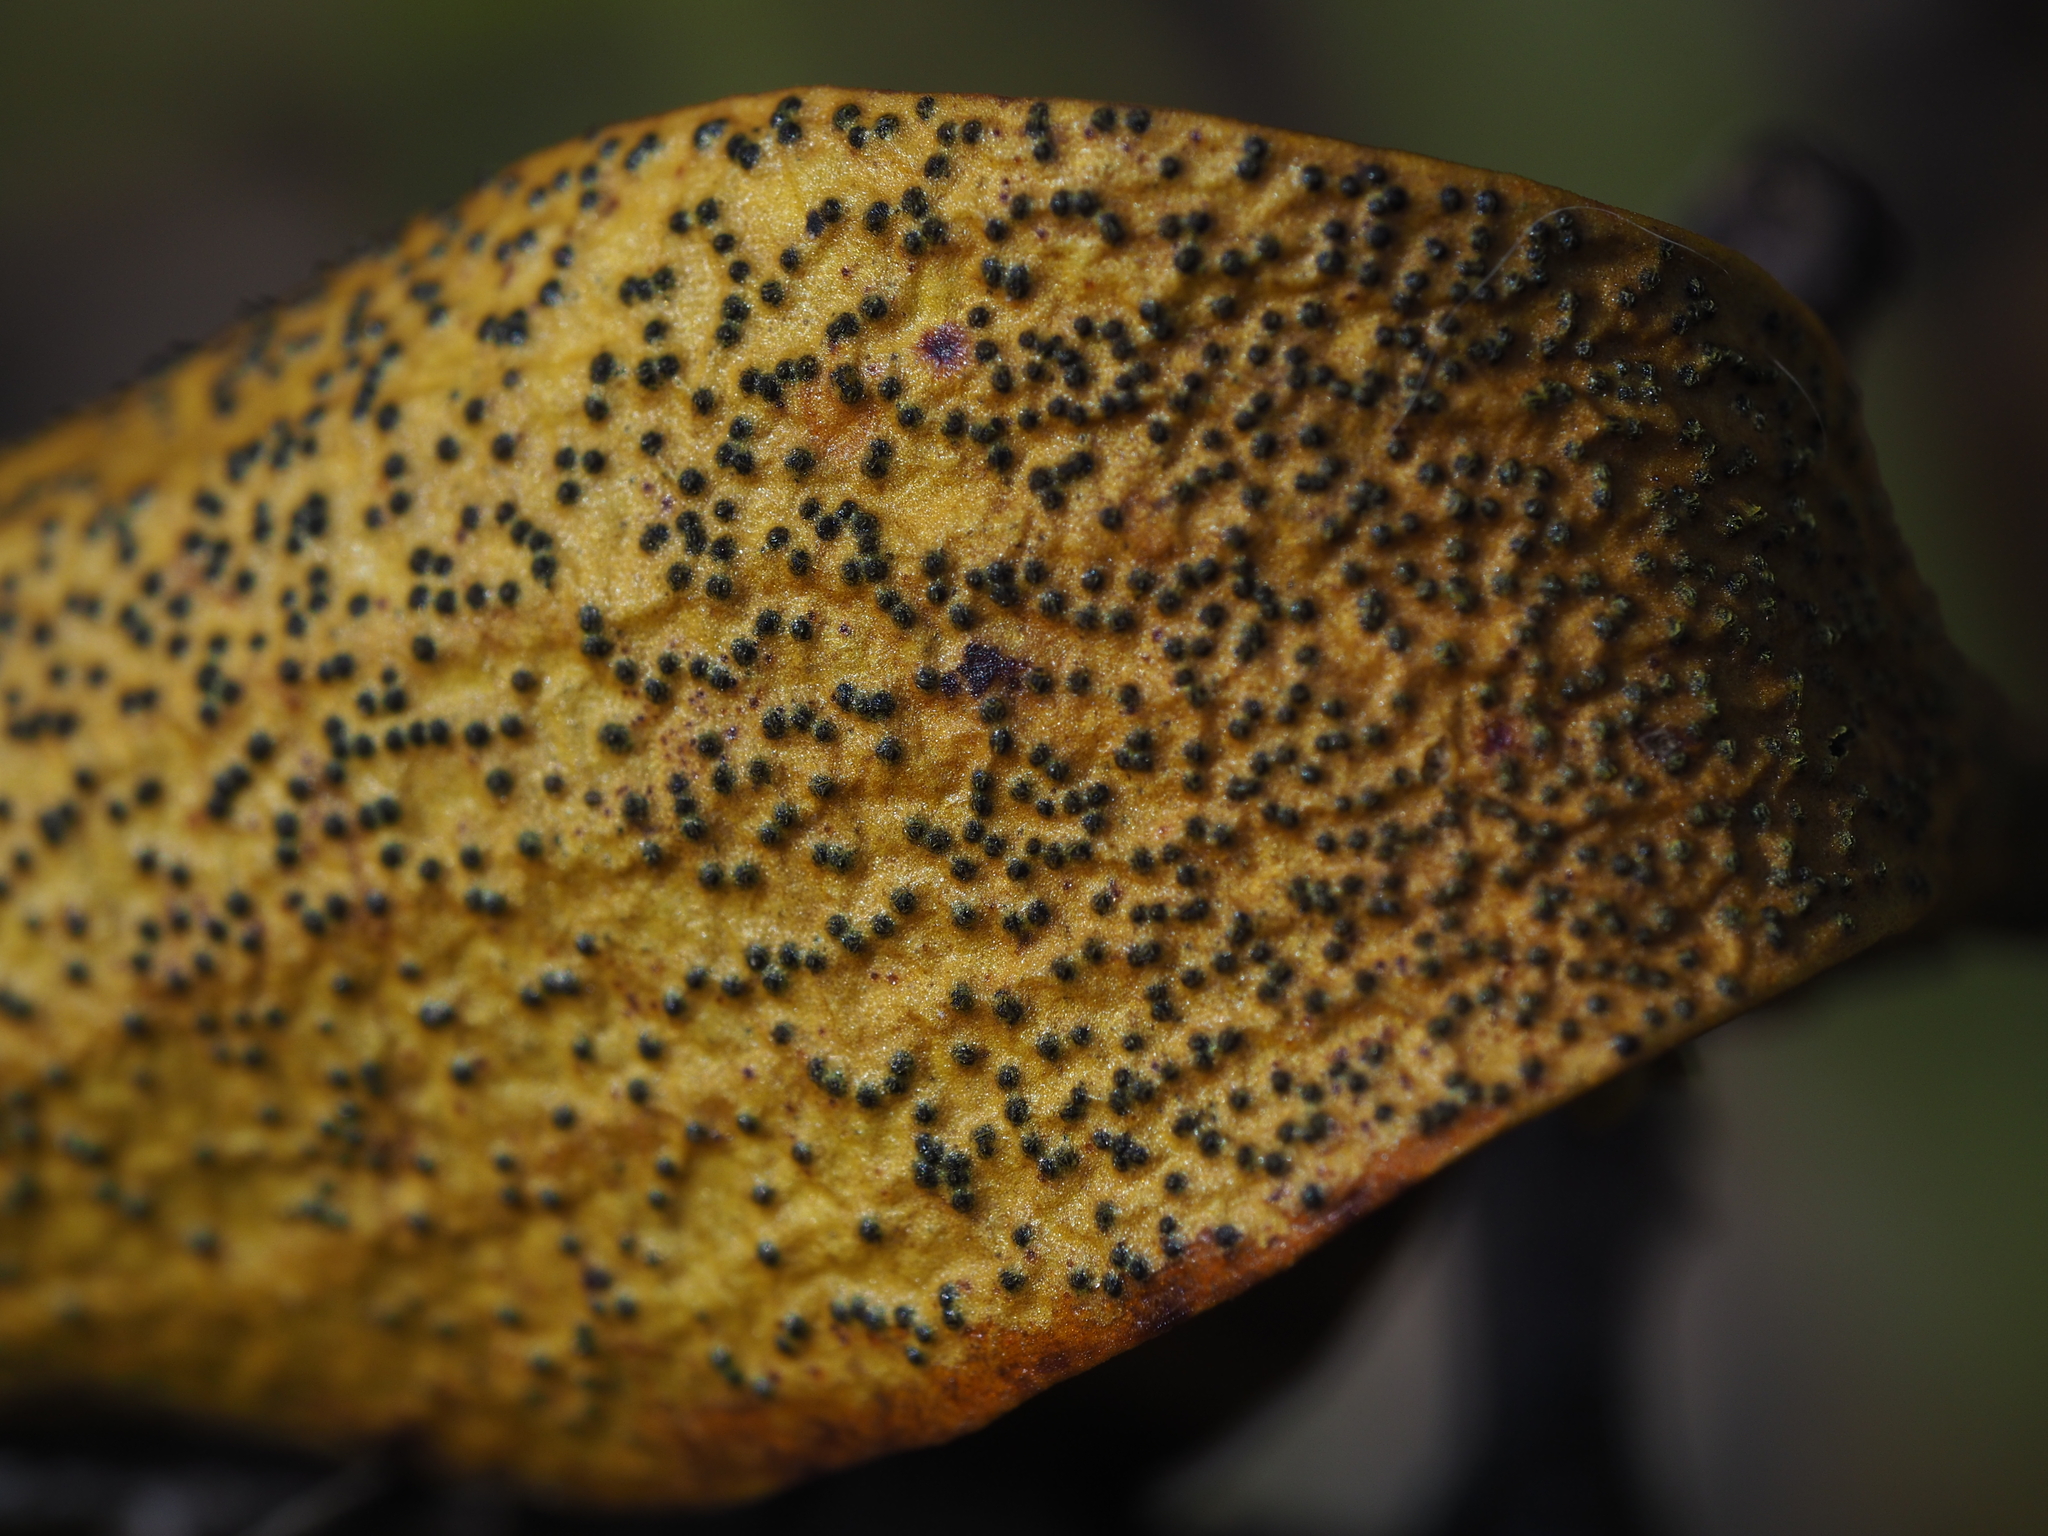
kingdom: Fungi
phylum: Ascomycota
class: Dothideomycetes
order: Botryosphaeriales
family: Botryosphaeriaceae
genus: Botryosphaeria
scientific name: Botryosphaeria visci
